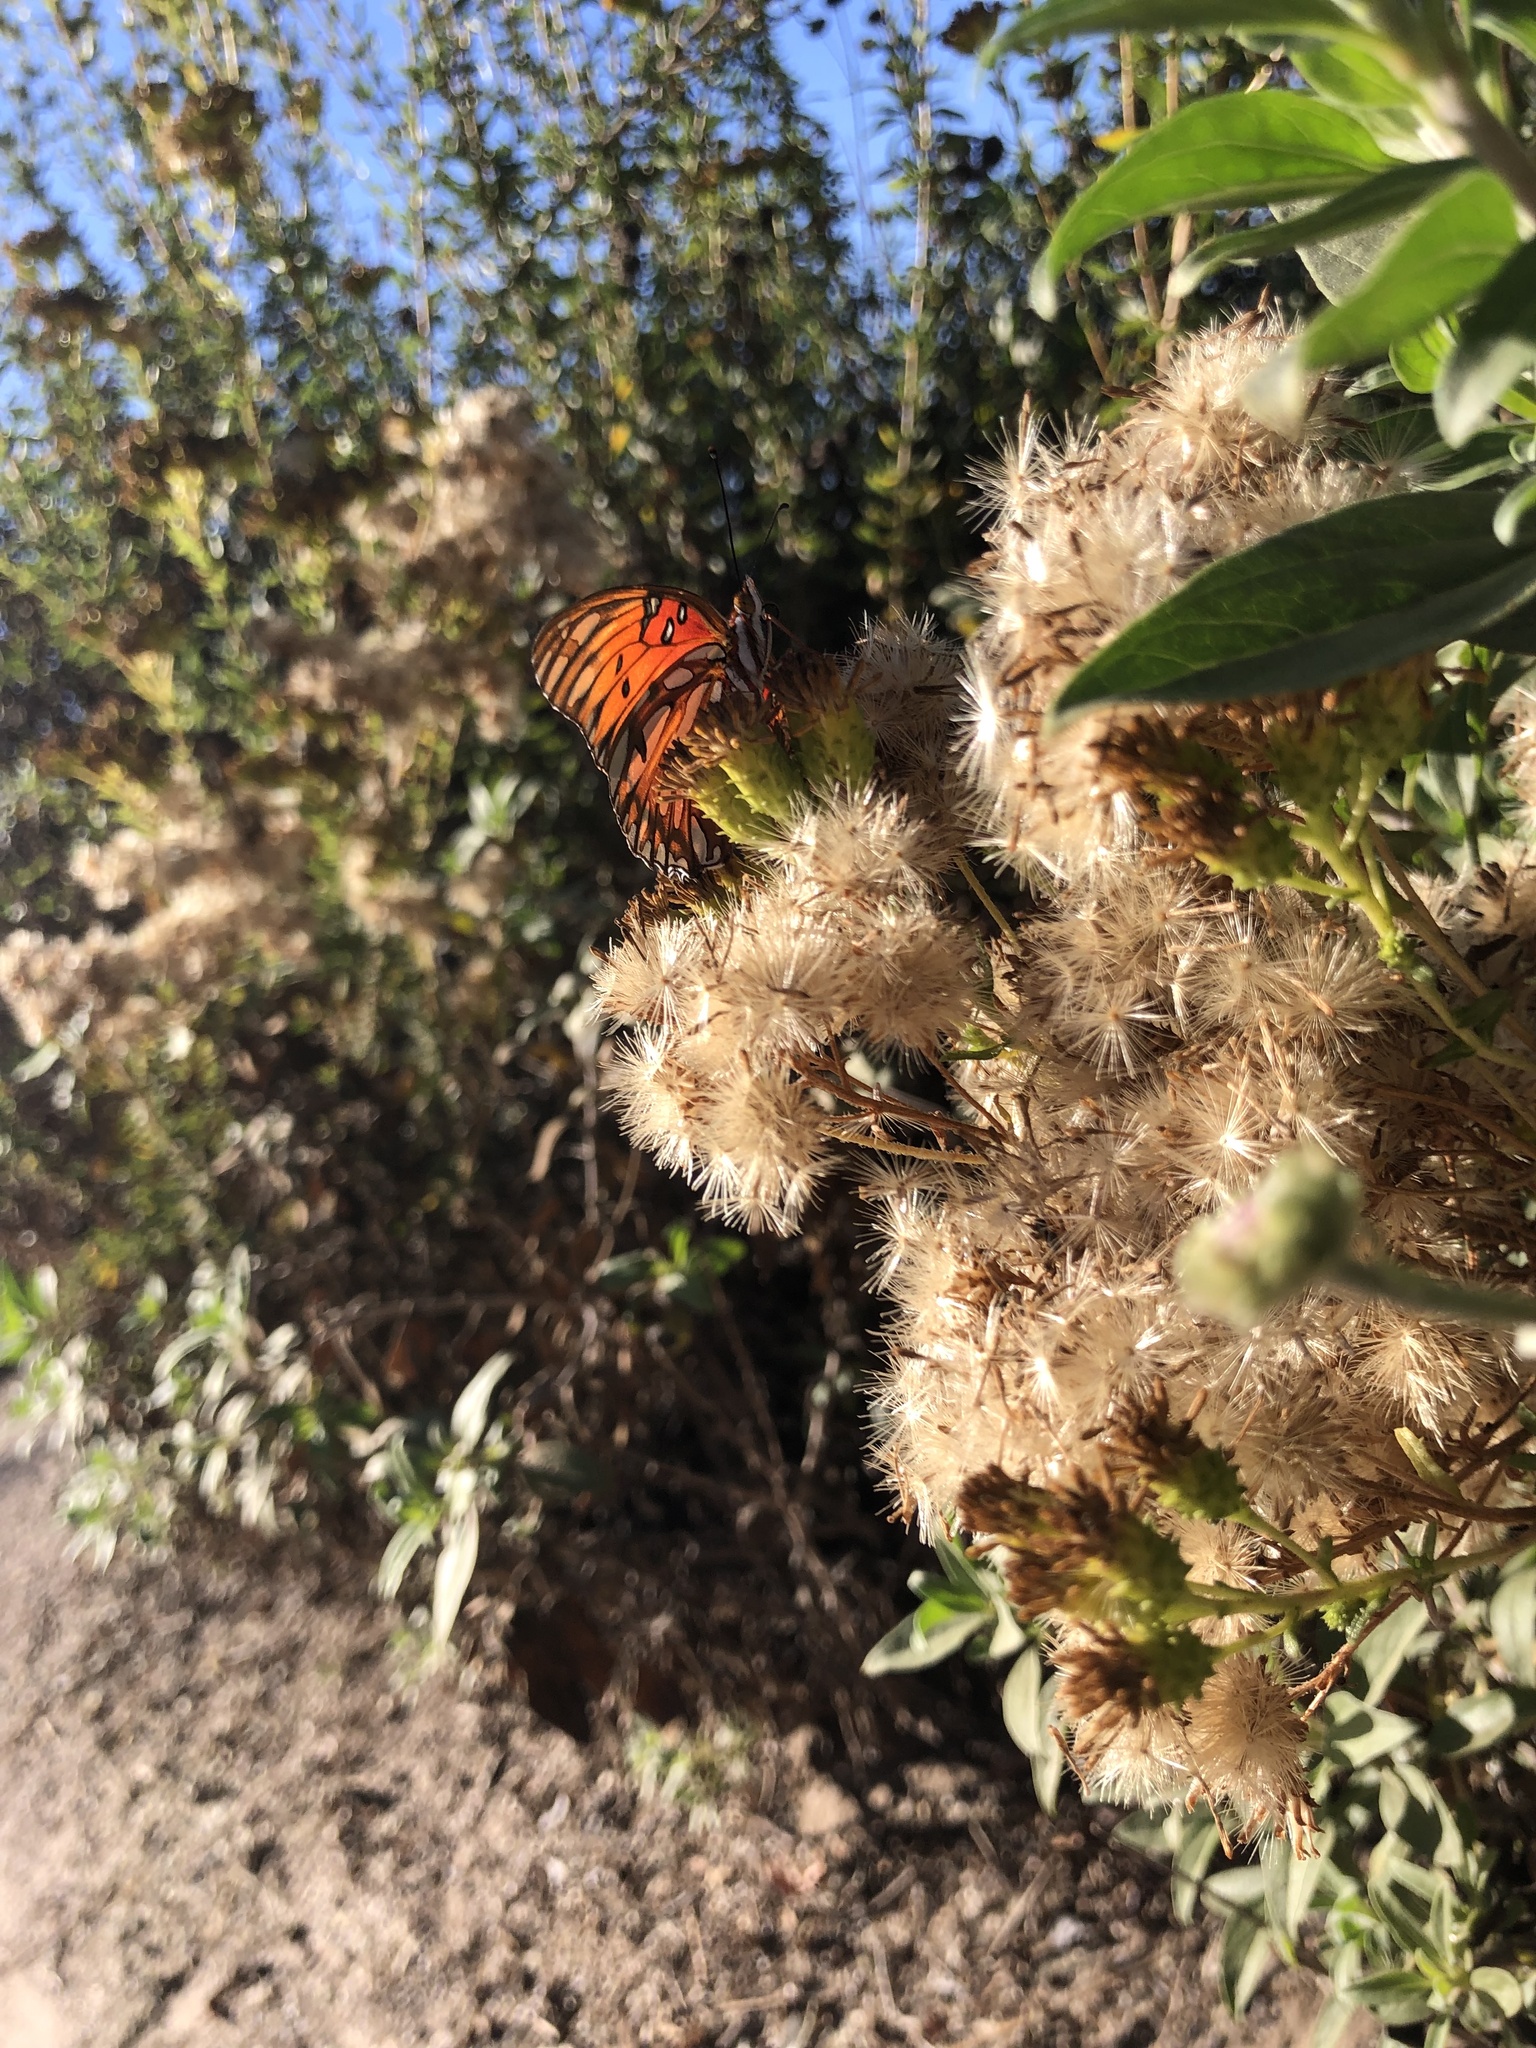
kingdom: Animalia
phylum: Arthropoda
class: Insecta
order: Lepidoptera
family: Nymphalidae
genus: Dione
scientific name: Dione vanillae
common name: Gulf fritillary
